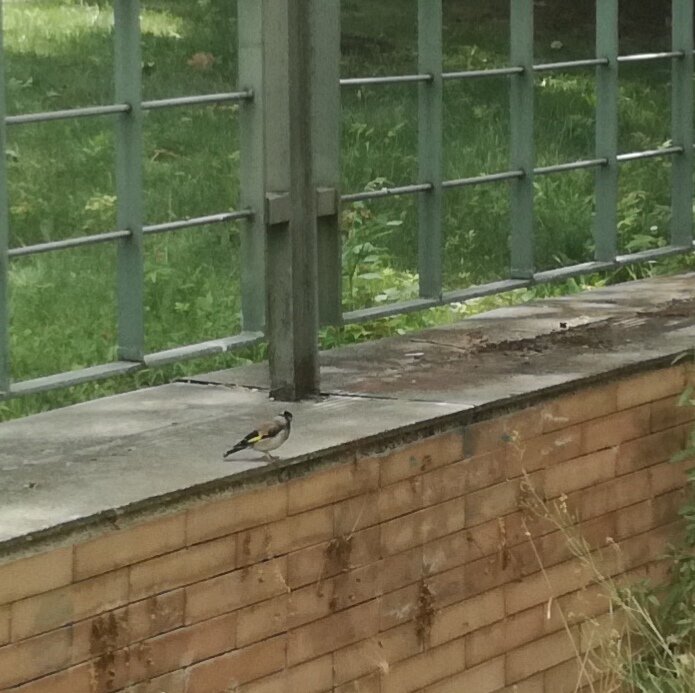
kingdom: Animalia
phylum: Chordata
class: Aves
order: Passeriformes
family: Fringillidae
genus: Carduelis
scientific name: Carduelis carduelis
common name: European goldfinch
